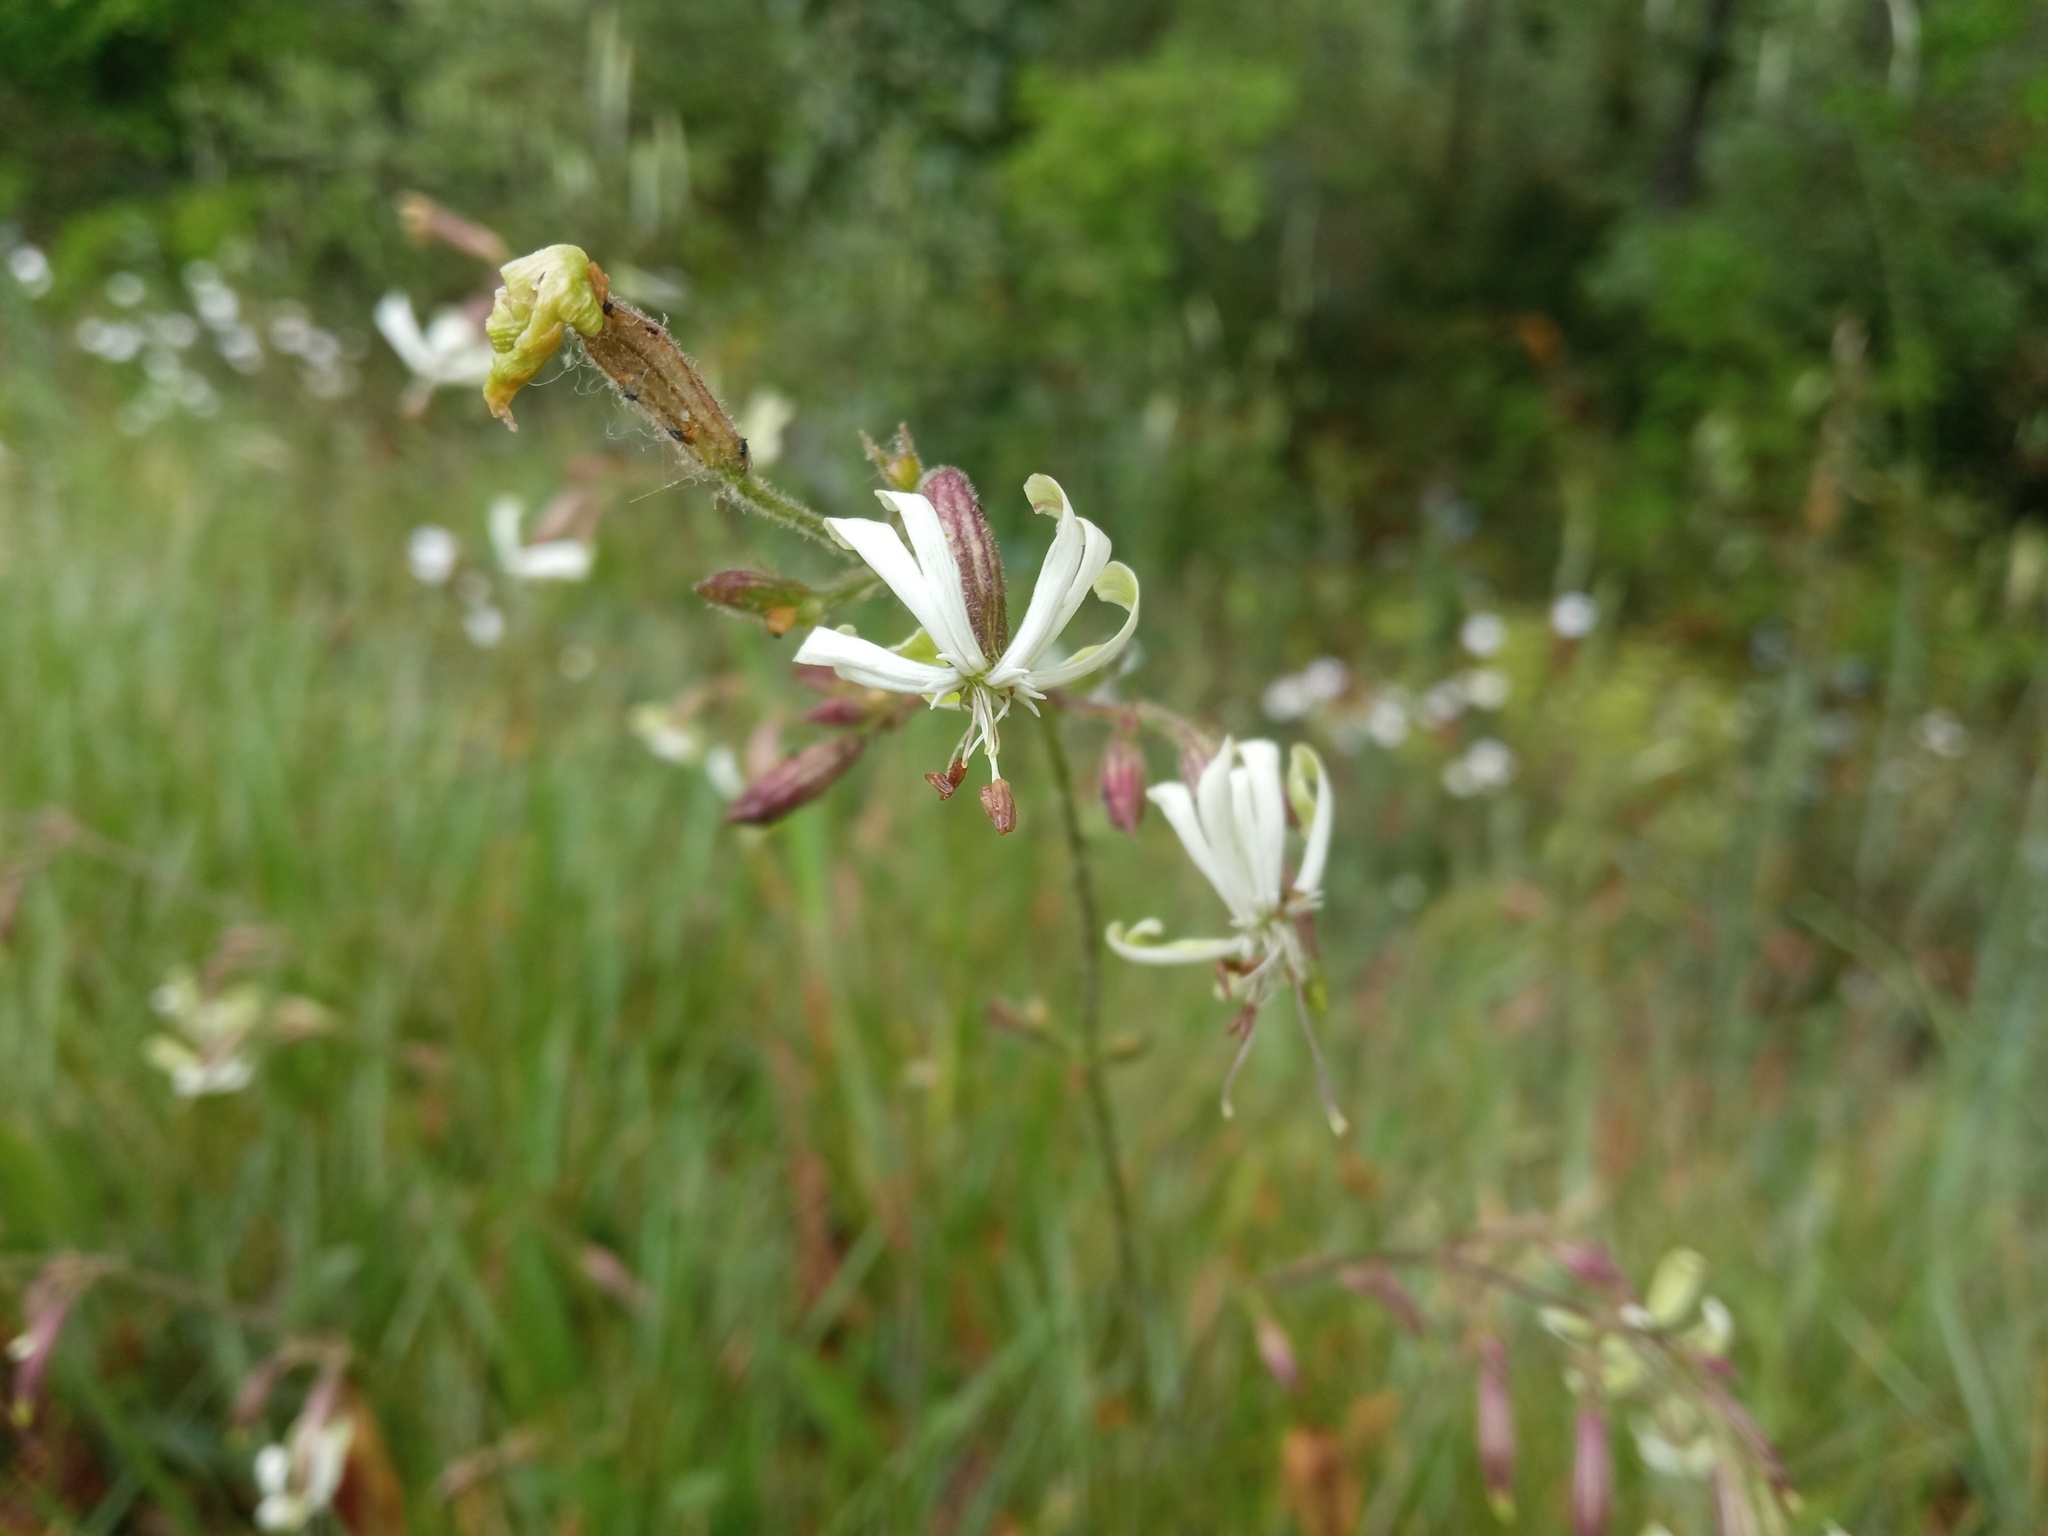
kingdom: Plantae
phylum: Tracheophyta
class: Magnoliopsida
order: Caryophyllales
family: Caryophyllaceae
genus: Silene
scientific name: Silene nutans
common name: Nottingham catchfly
